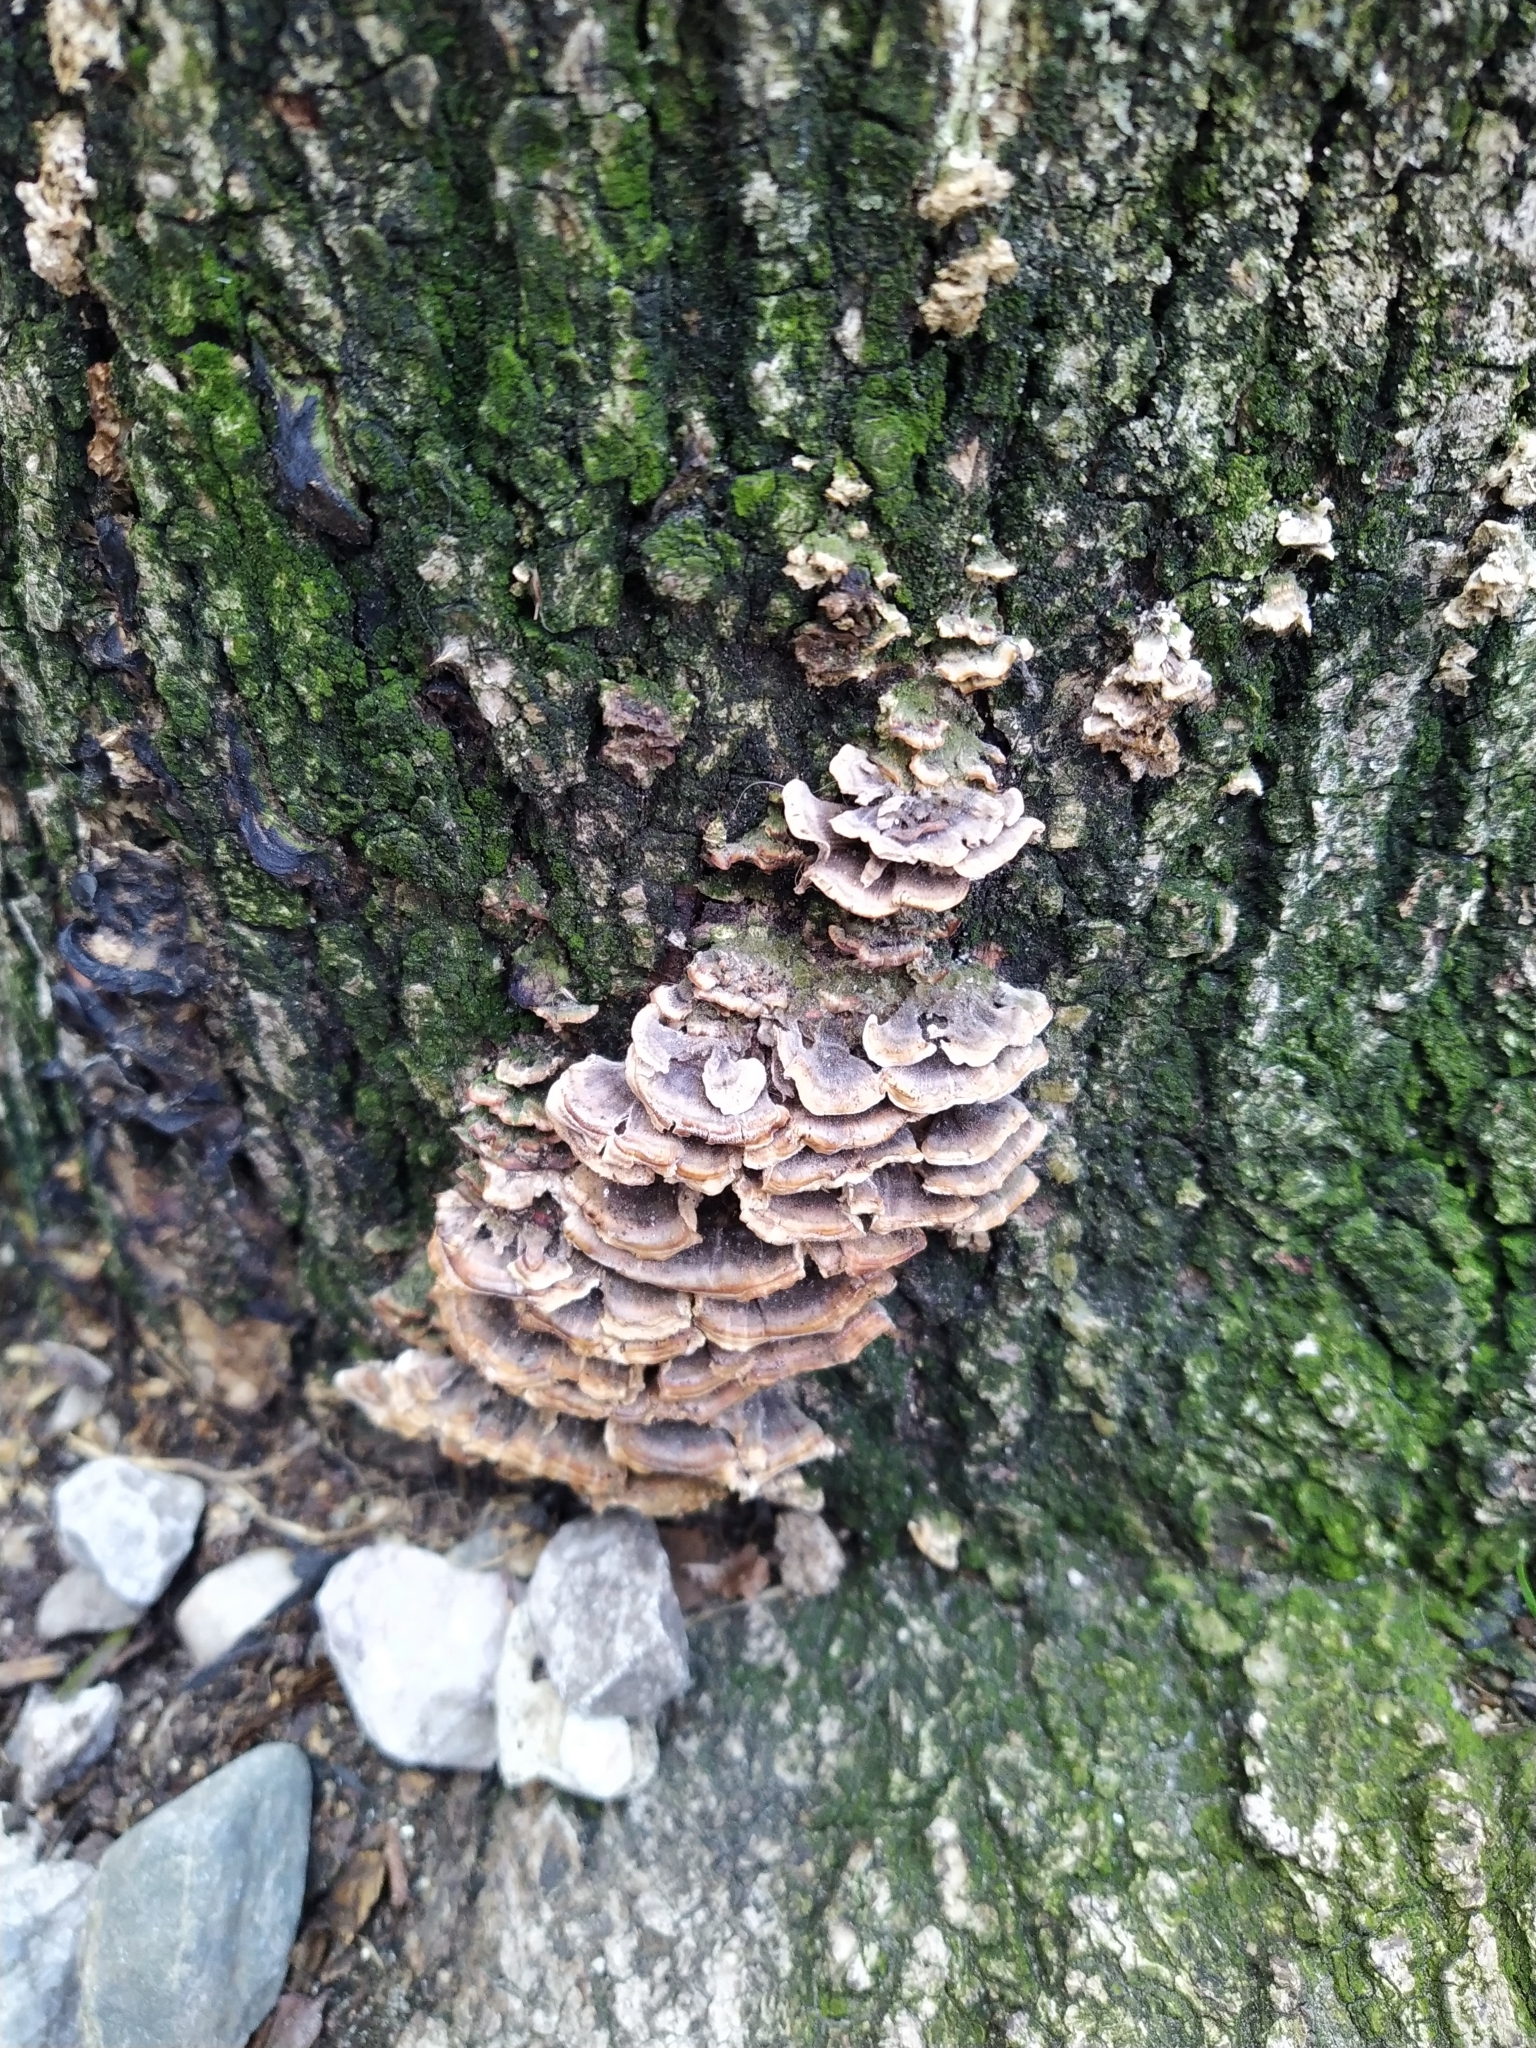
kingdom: Fungi
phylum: Basidiomycota
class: Agaricomycetes
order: Polyporales
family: Polyporaceae
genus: Trametes
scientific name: Trametes versicolor
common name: Turkeytail
